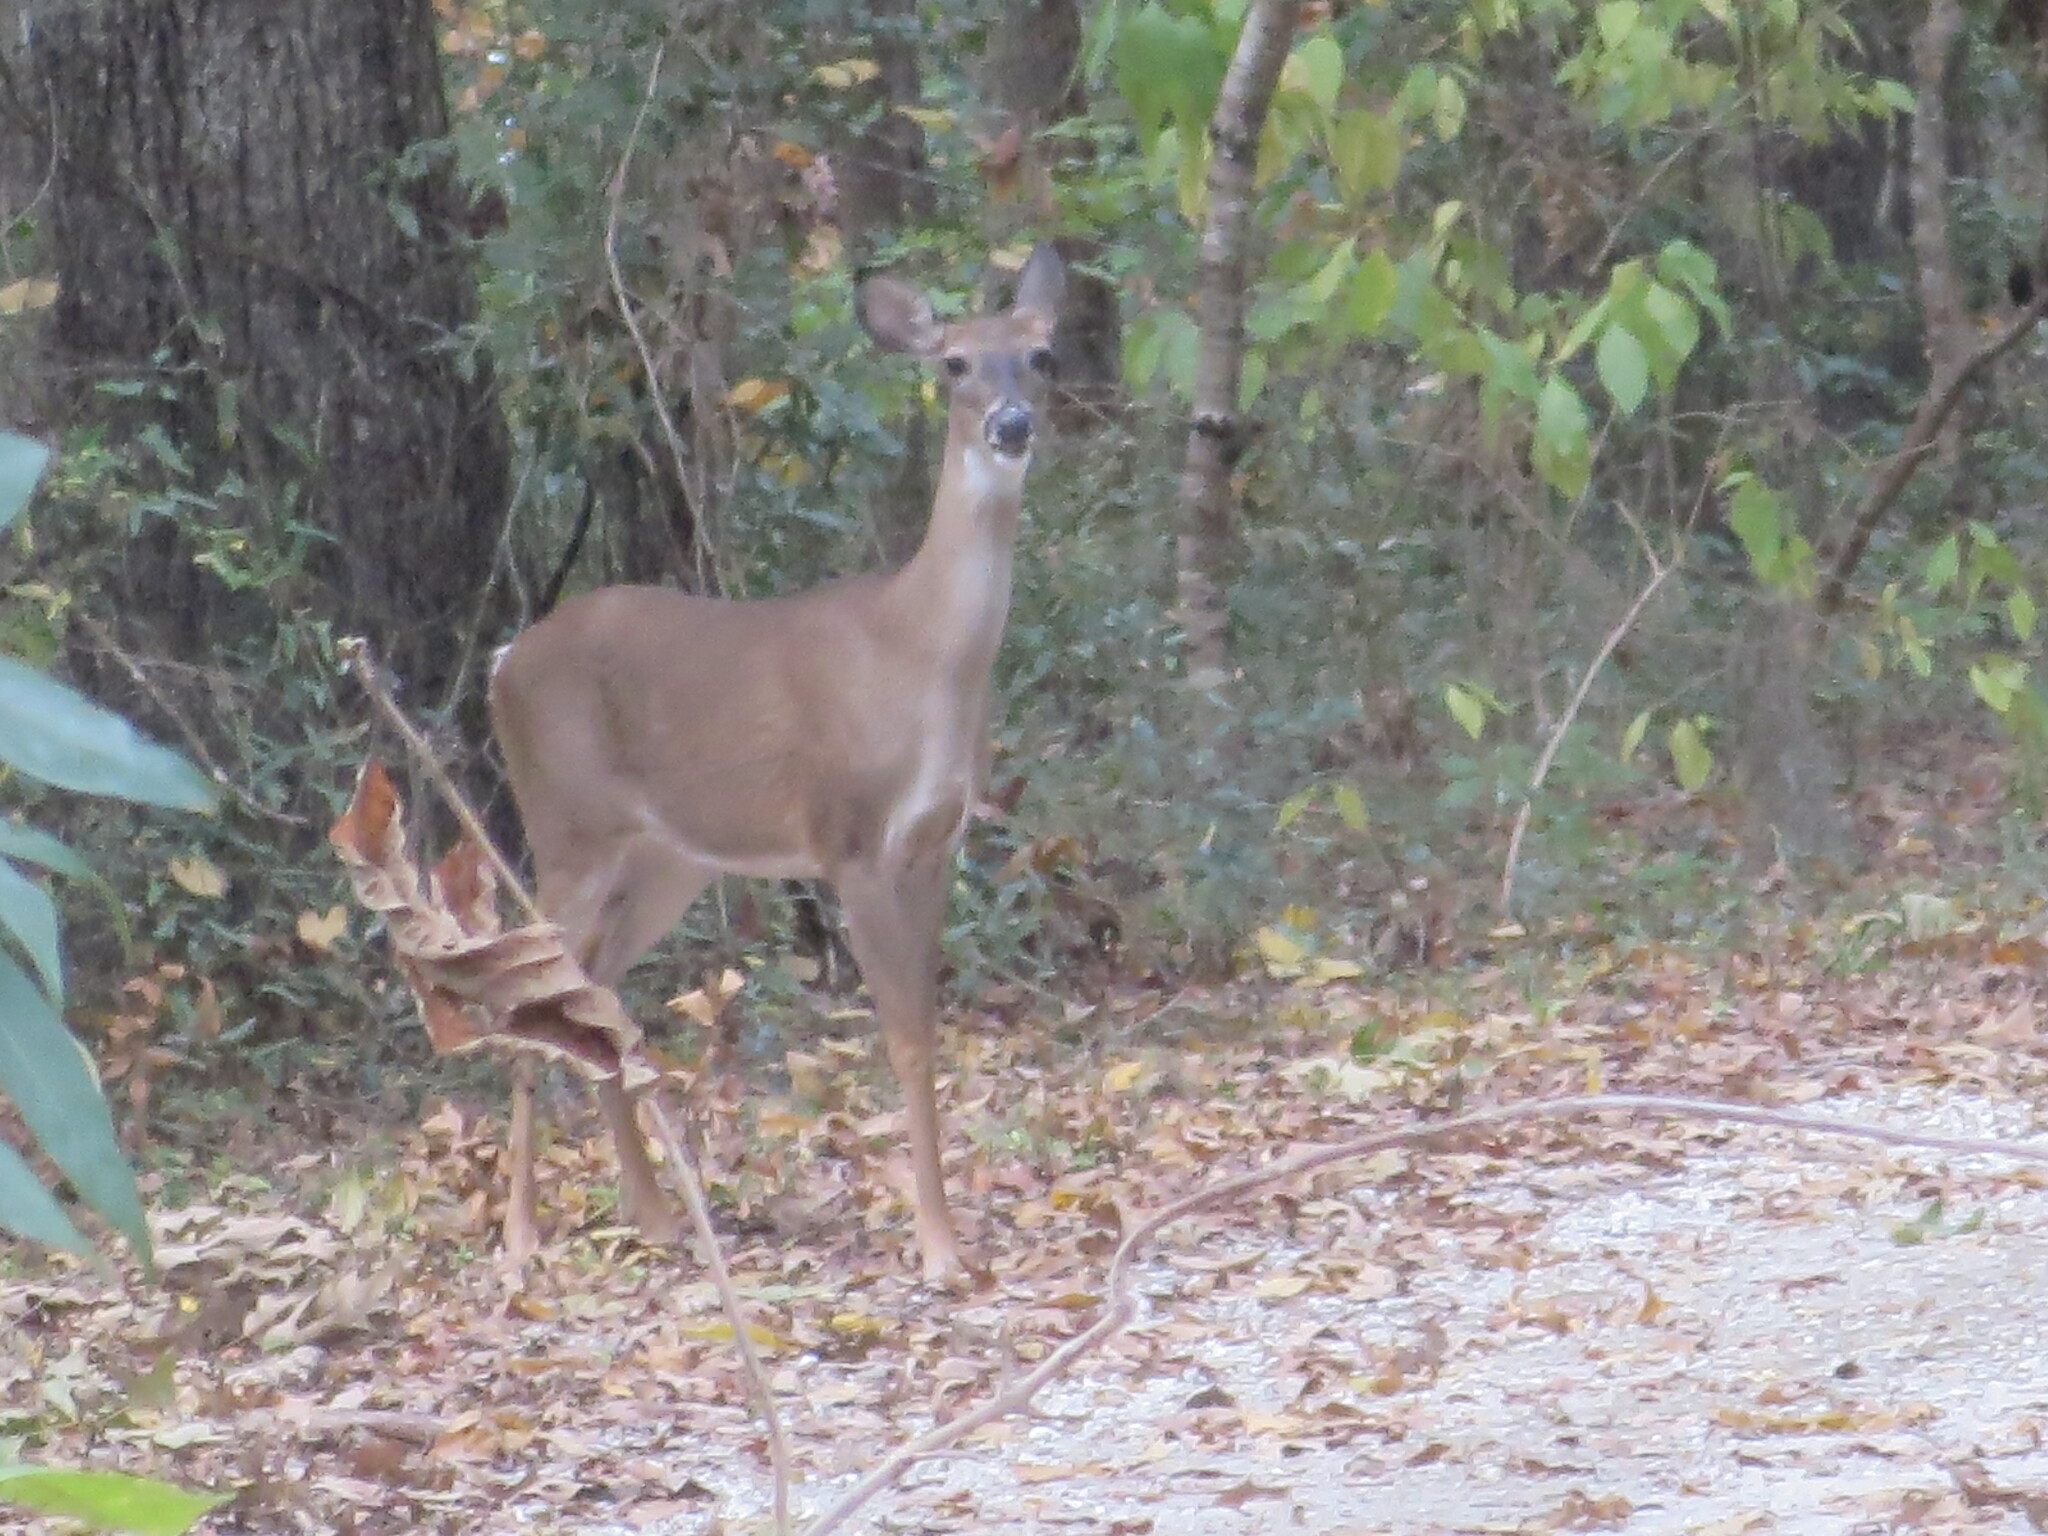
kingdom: Animalia
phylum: Chordata
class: Mammalia
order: Artiodactyla
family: Cervidae
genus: Odocoileus
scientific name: Odocoileus virginianus
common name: White-tailed deer
